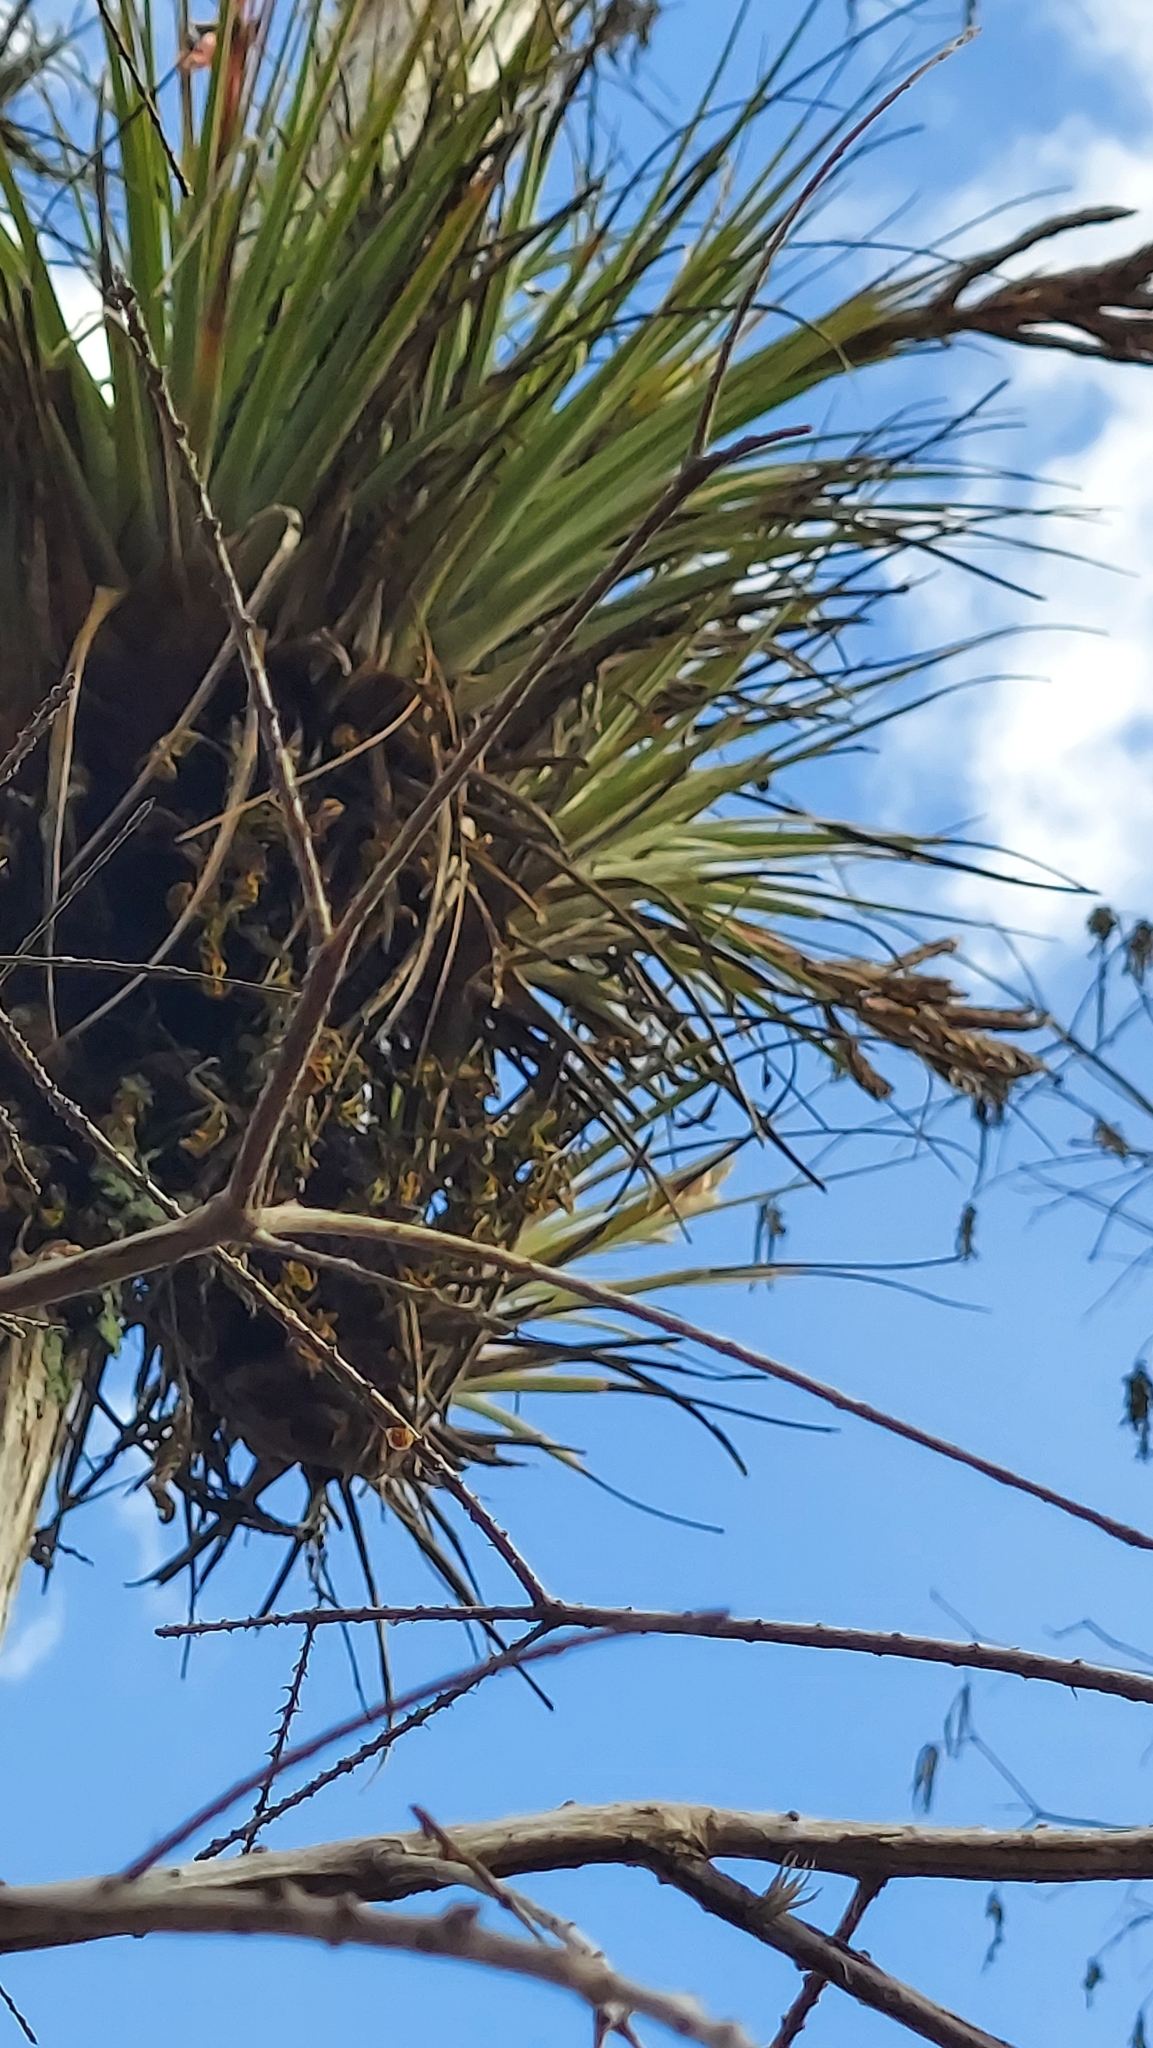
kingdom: Plantae
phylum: Tracheophyta
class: Liliopsida
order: Poales
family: Bromeliaceae
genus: Tillandsia
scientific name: Tillandsia fasciculata
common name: Giant airplant
